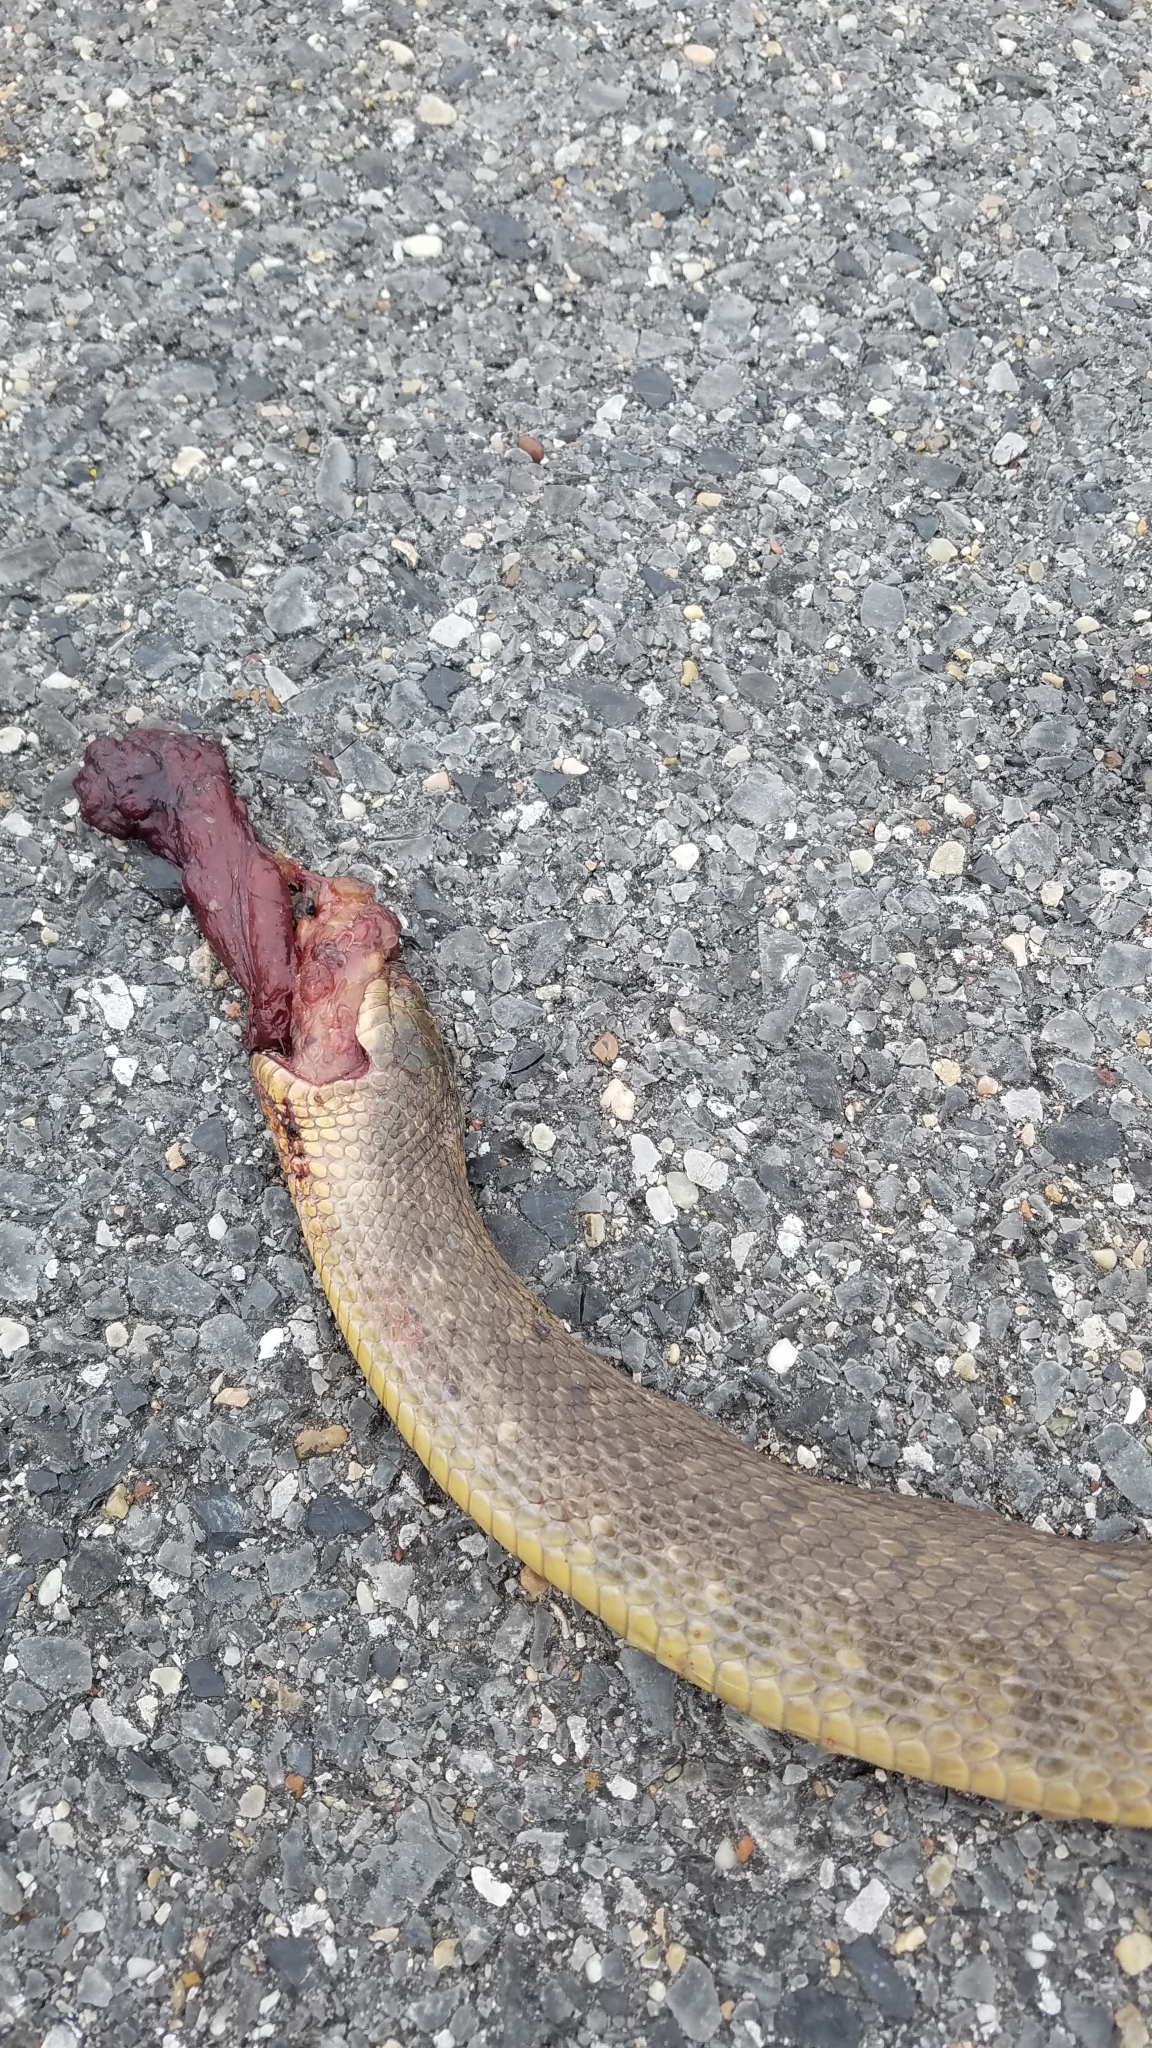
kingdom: Animalia
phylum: Chordata
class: Squamata
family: Colubridae
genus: Nerodia
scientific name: Nerodia cyclopion
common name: Mississippi green water snake
